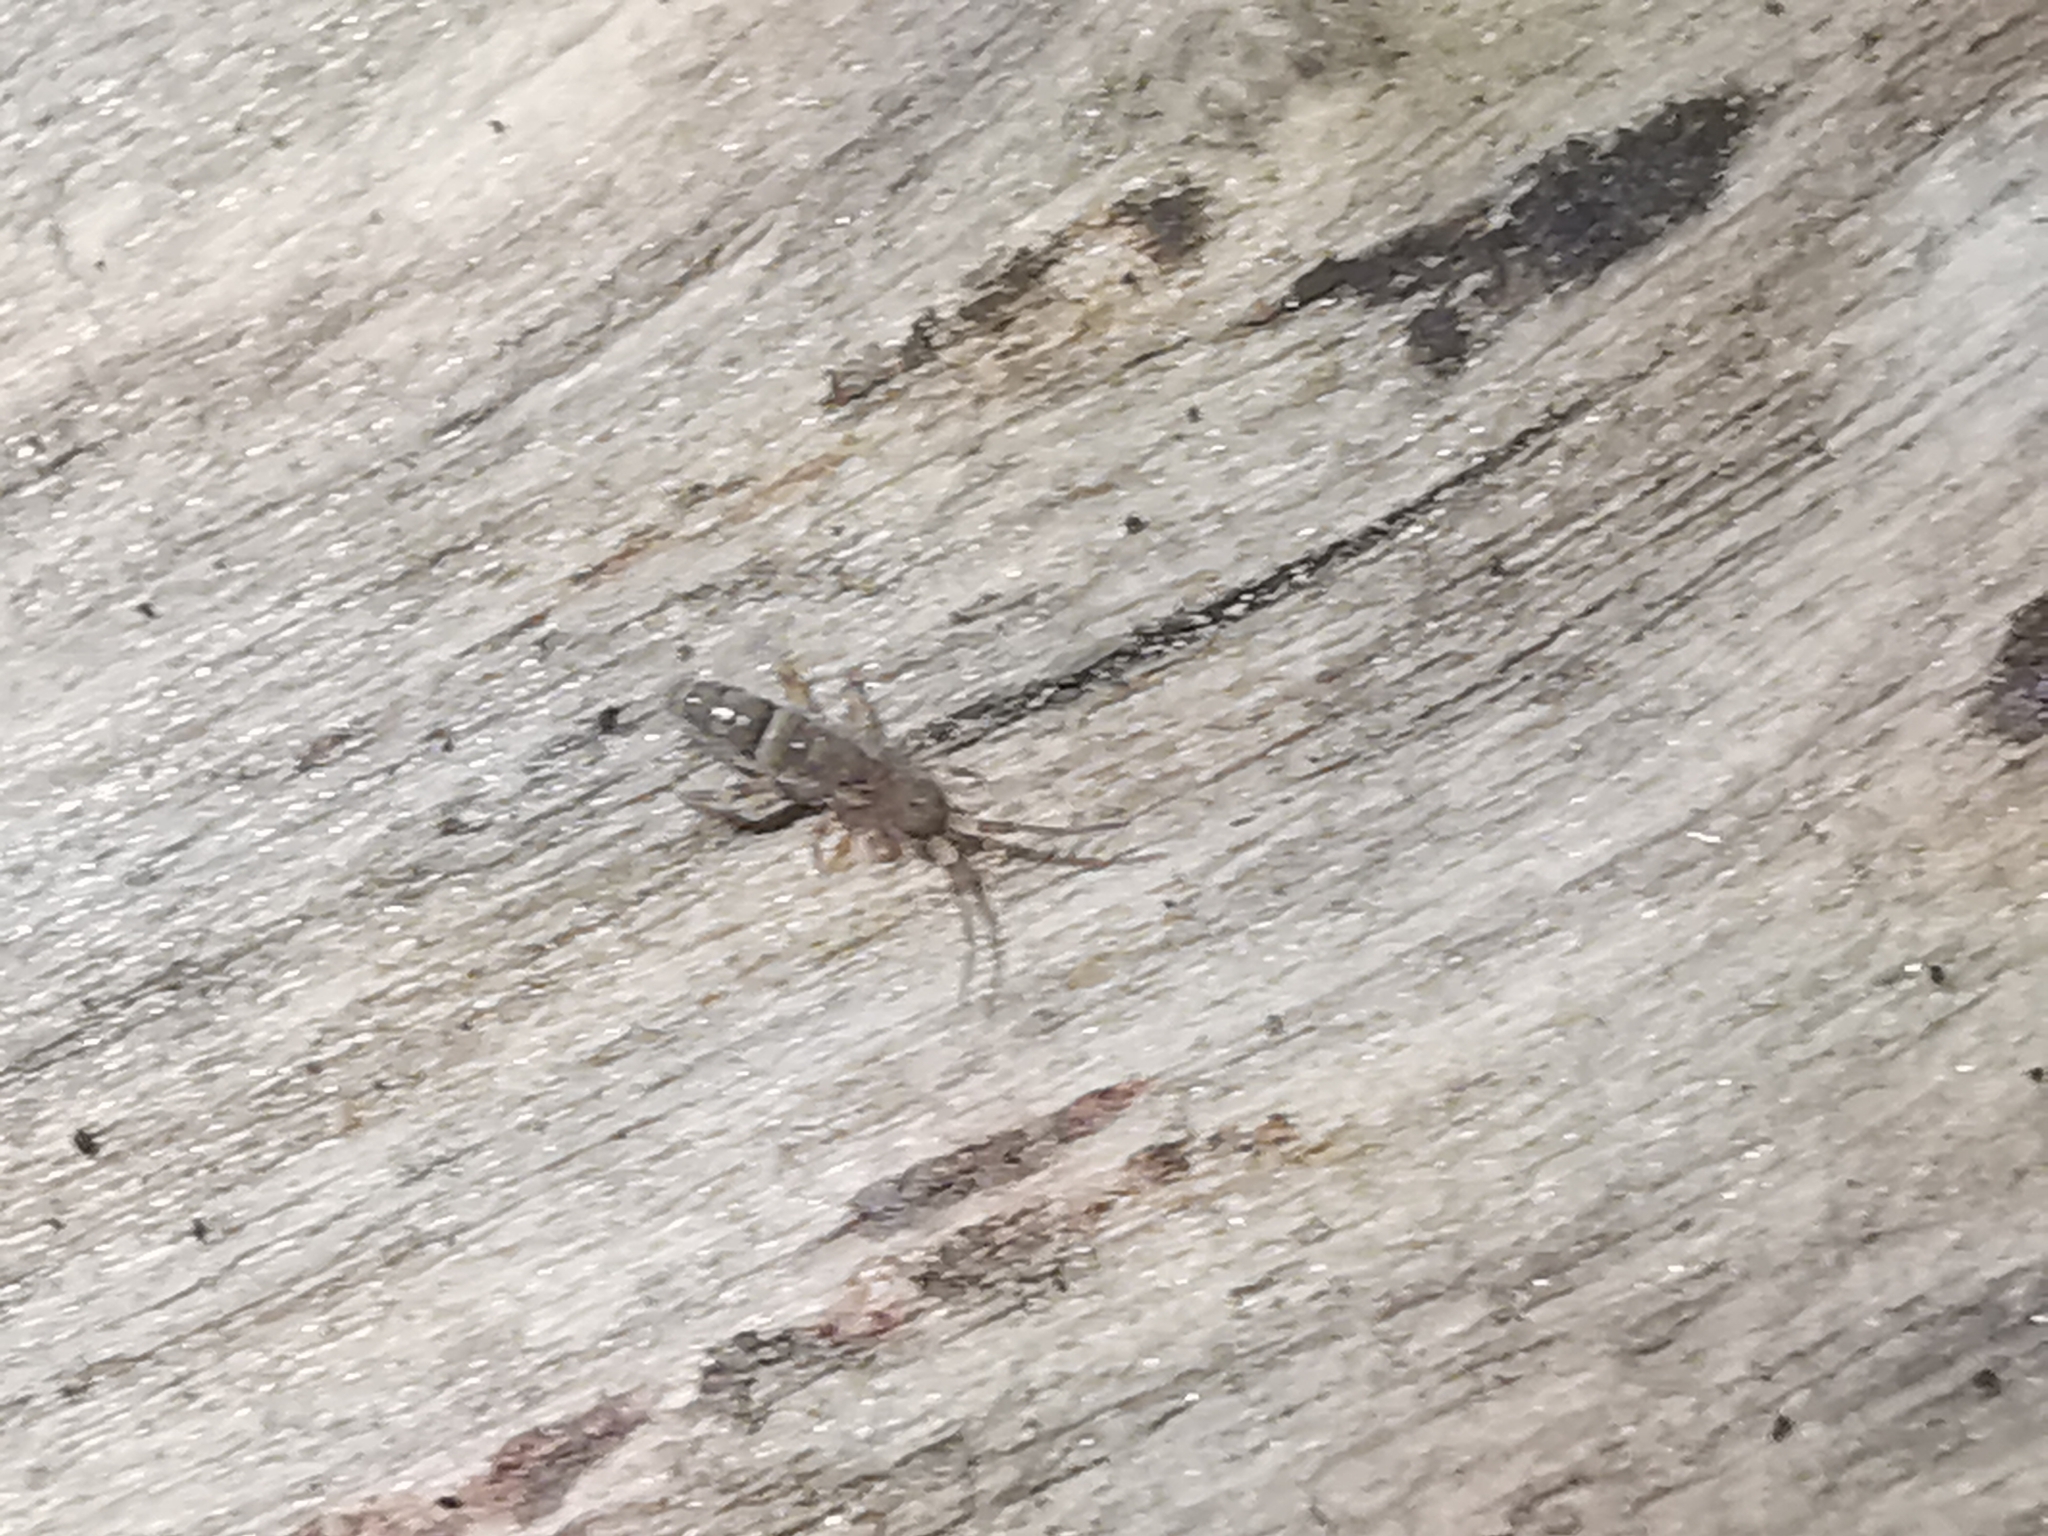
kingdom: Animalia
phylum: Arthropoda
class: Collembola
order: Entomobryomorpha
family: Orchesellidae
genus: Orchesella
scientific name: Orchesella cincta
